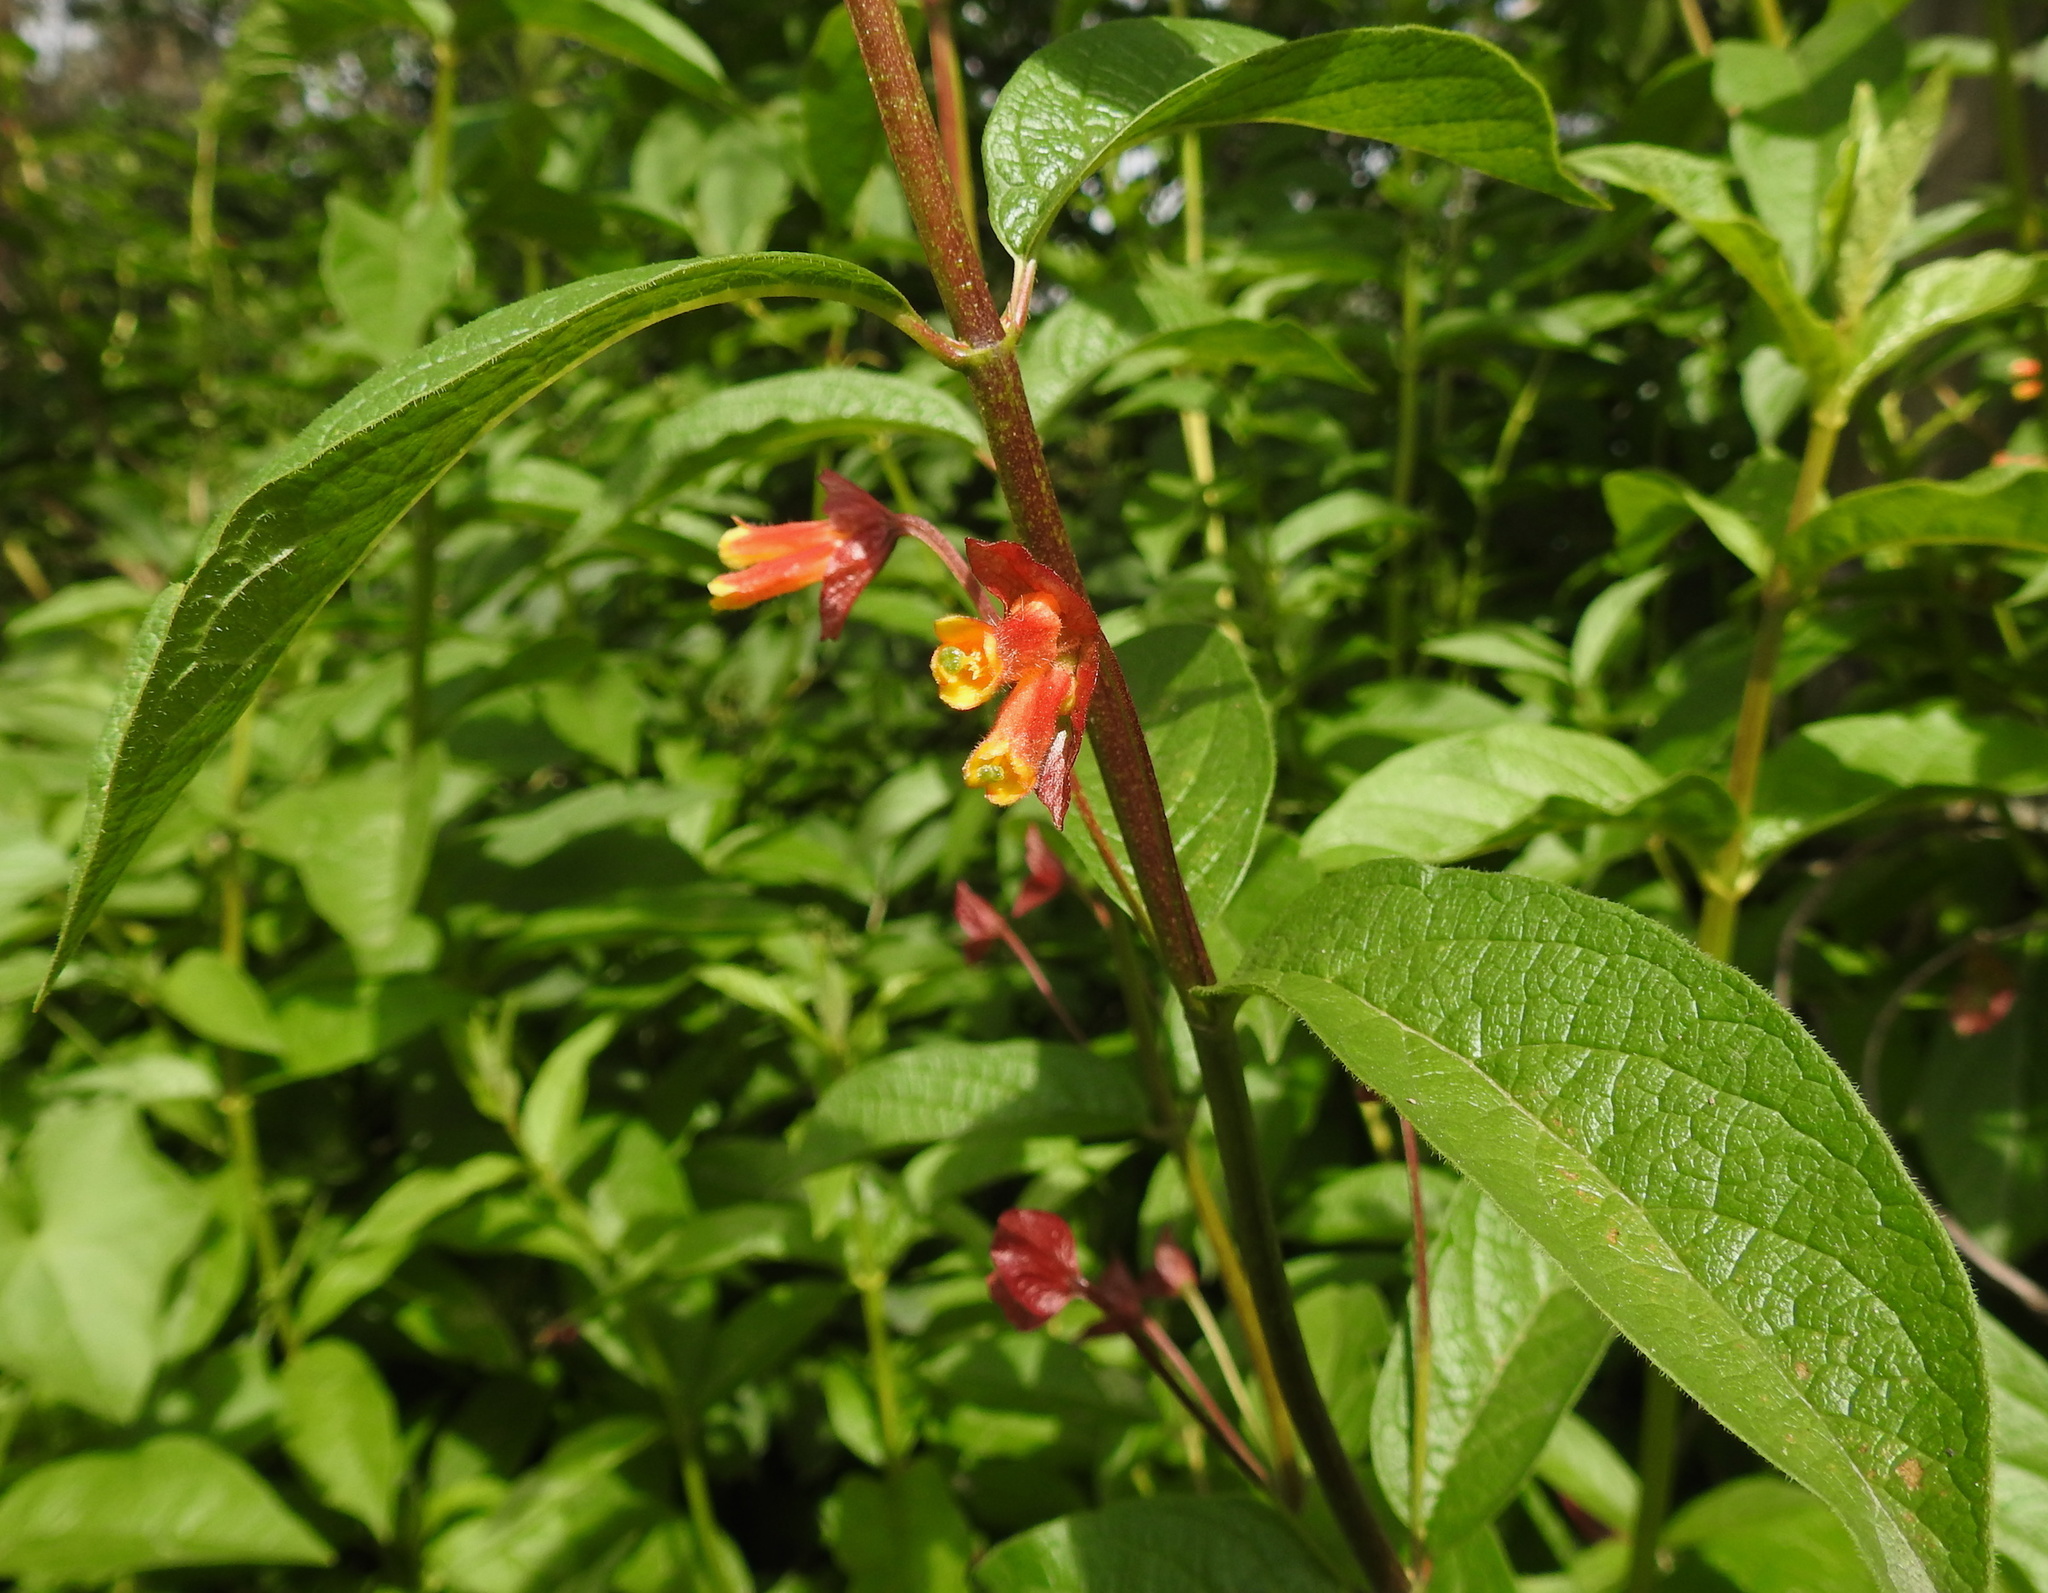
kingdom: Plantae
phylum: Tracheophyta
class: Magnoliopsida
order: Dipsacales
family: Caprifoliaceae
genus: Lonicera
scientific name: Lonicera involucrata
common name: Californian honeysuckle
